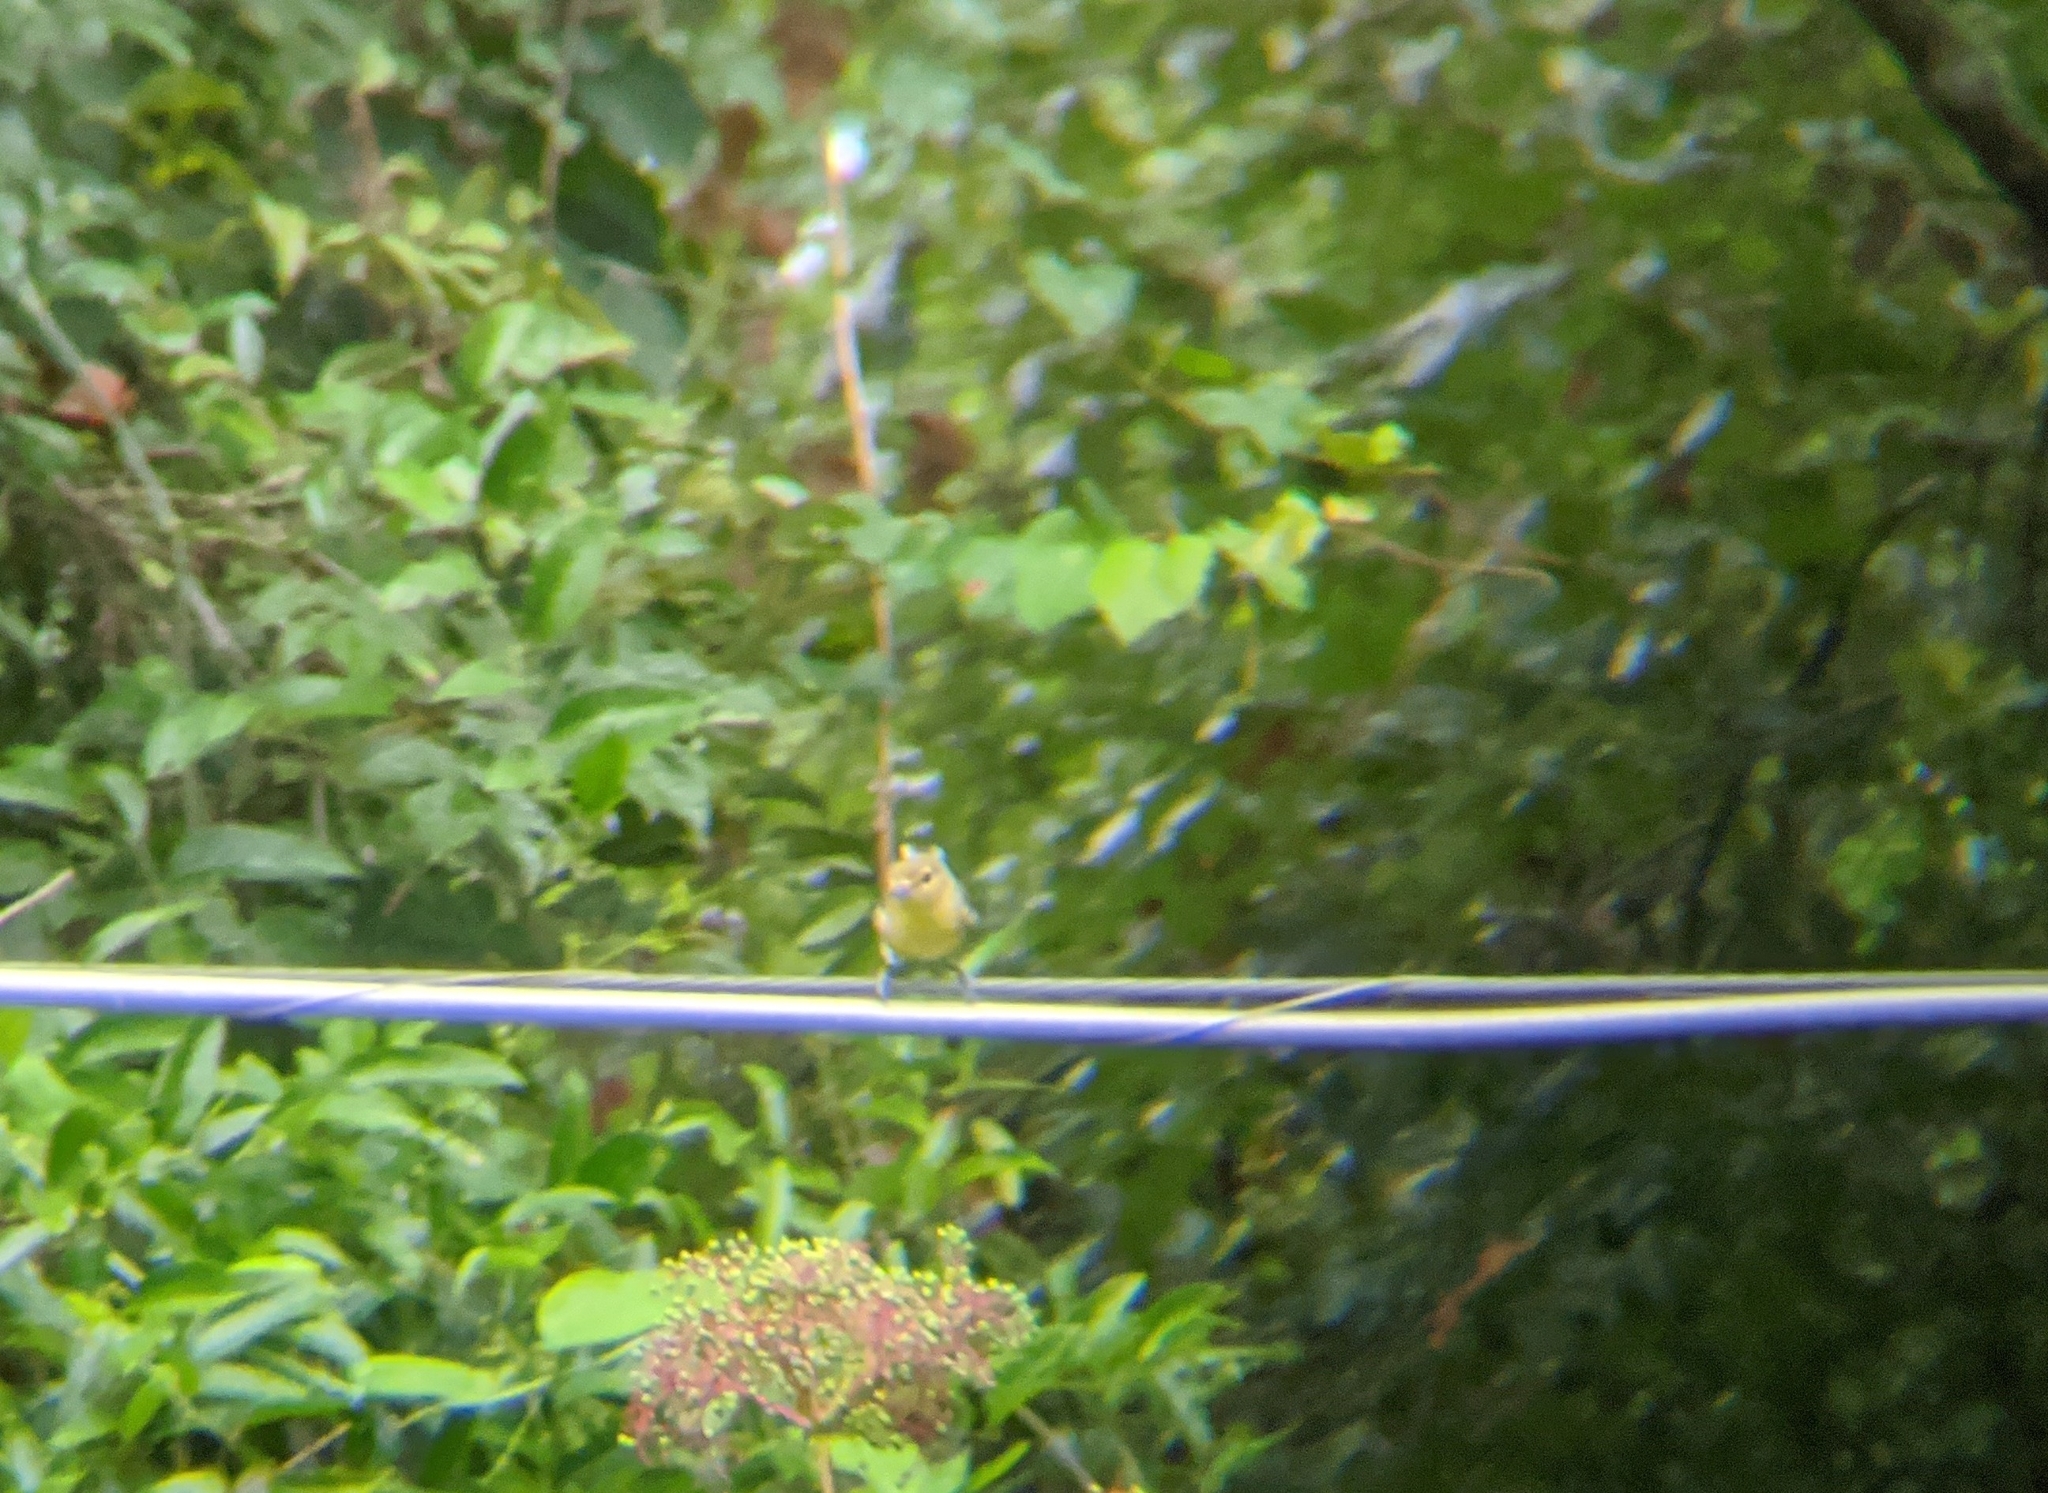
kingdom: Animalia
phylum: Chordata
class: Aves
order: Passeriformes
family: Vireonidae
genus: Vireo
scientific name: Vireo flavifrons
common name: Yellow-throated vireo
